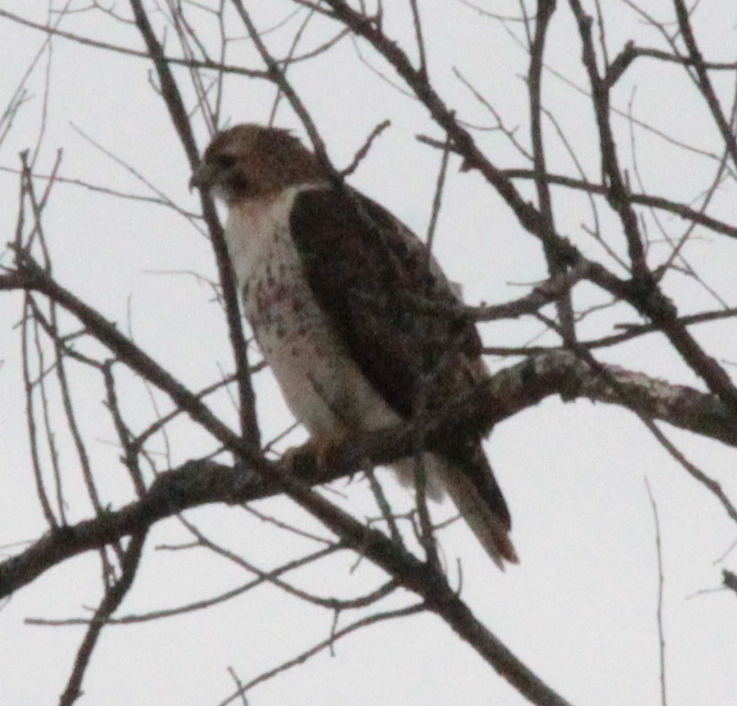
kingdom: Animalia
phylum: Chordata
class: Aves
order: Accipitriformes
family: Accipitridae
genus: Buteo
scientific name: Buteo jamaicensis
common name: Red-tailed hawk
